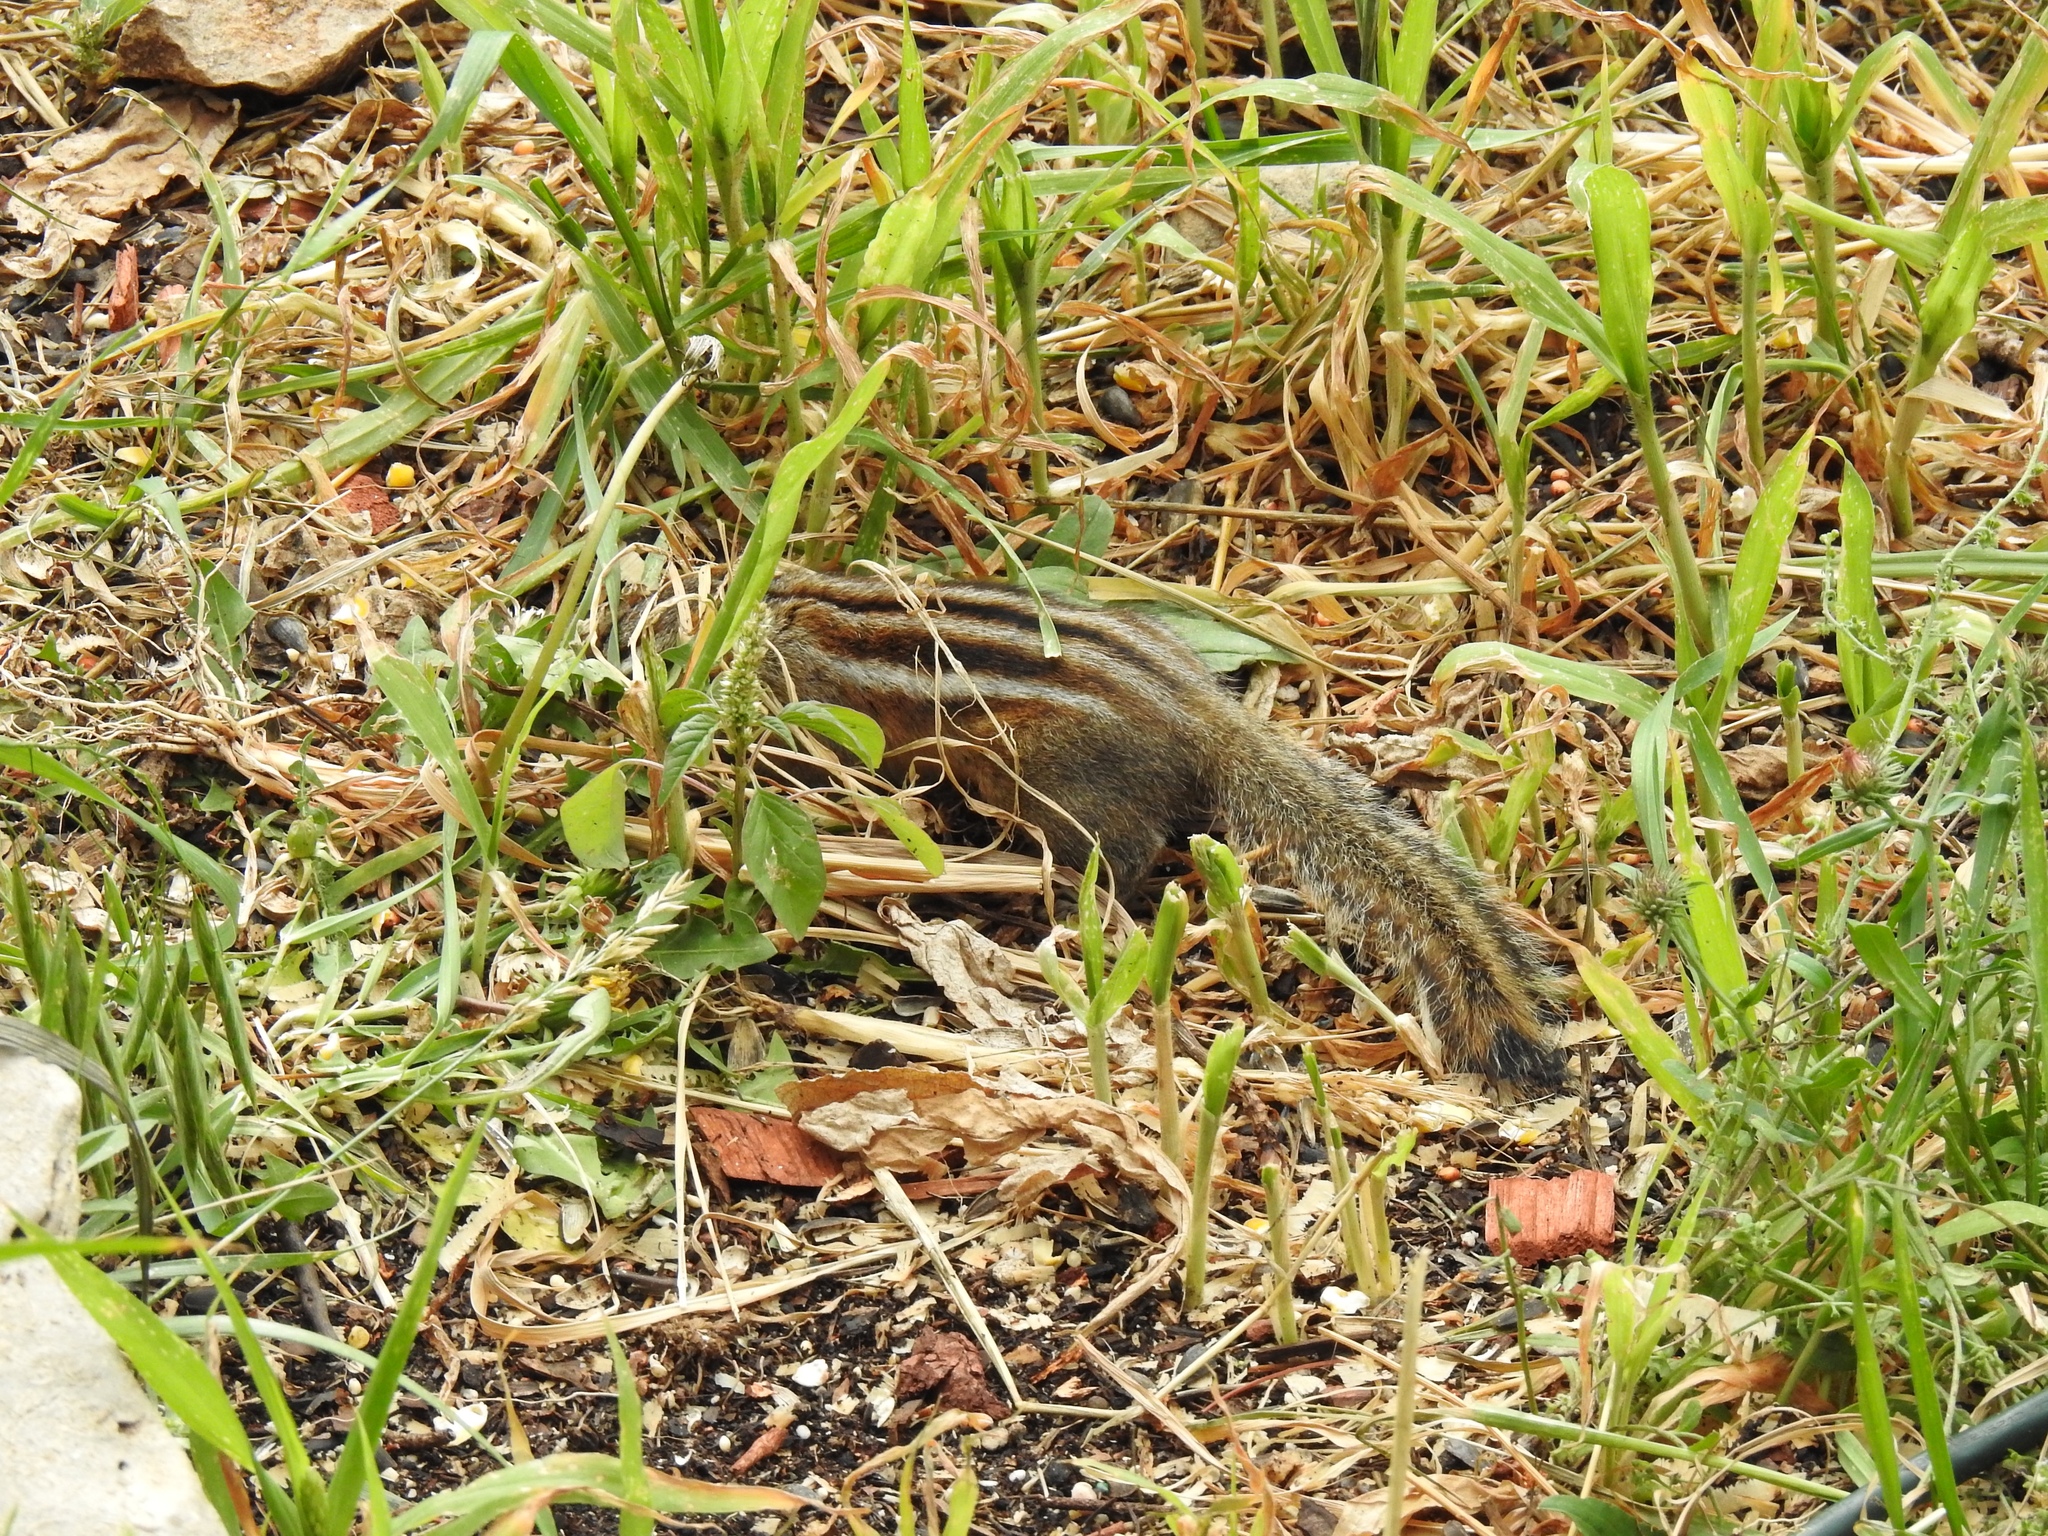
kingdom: Animalia
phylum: Chordata
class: Mammalia
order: Rodentia
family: Sciuridae
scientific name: Sciuridae
